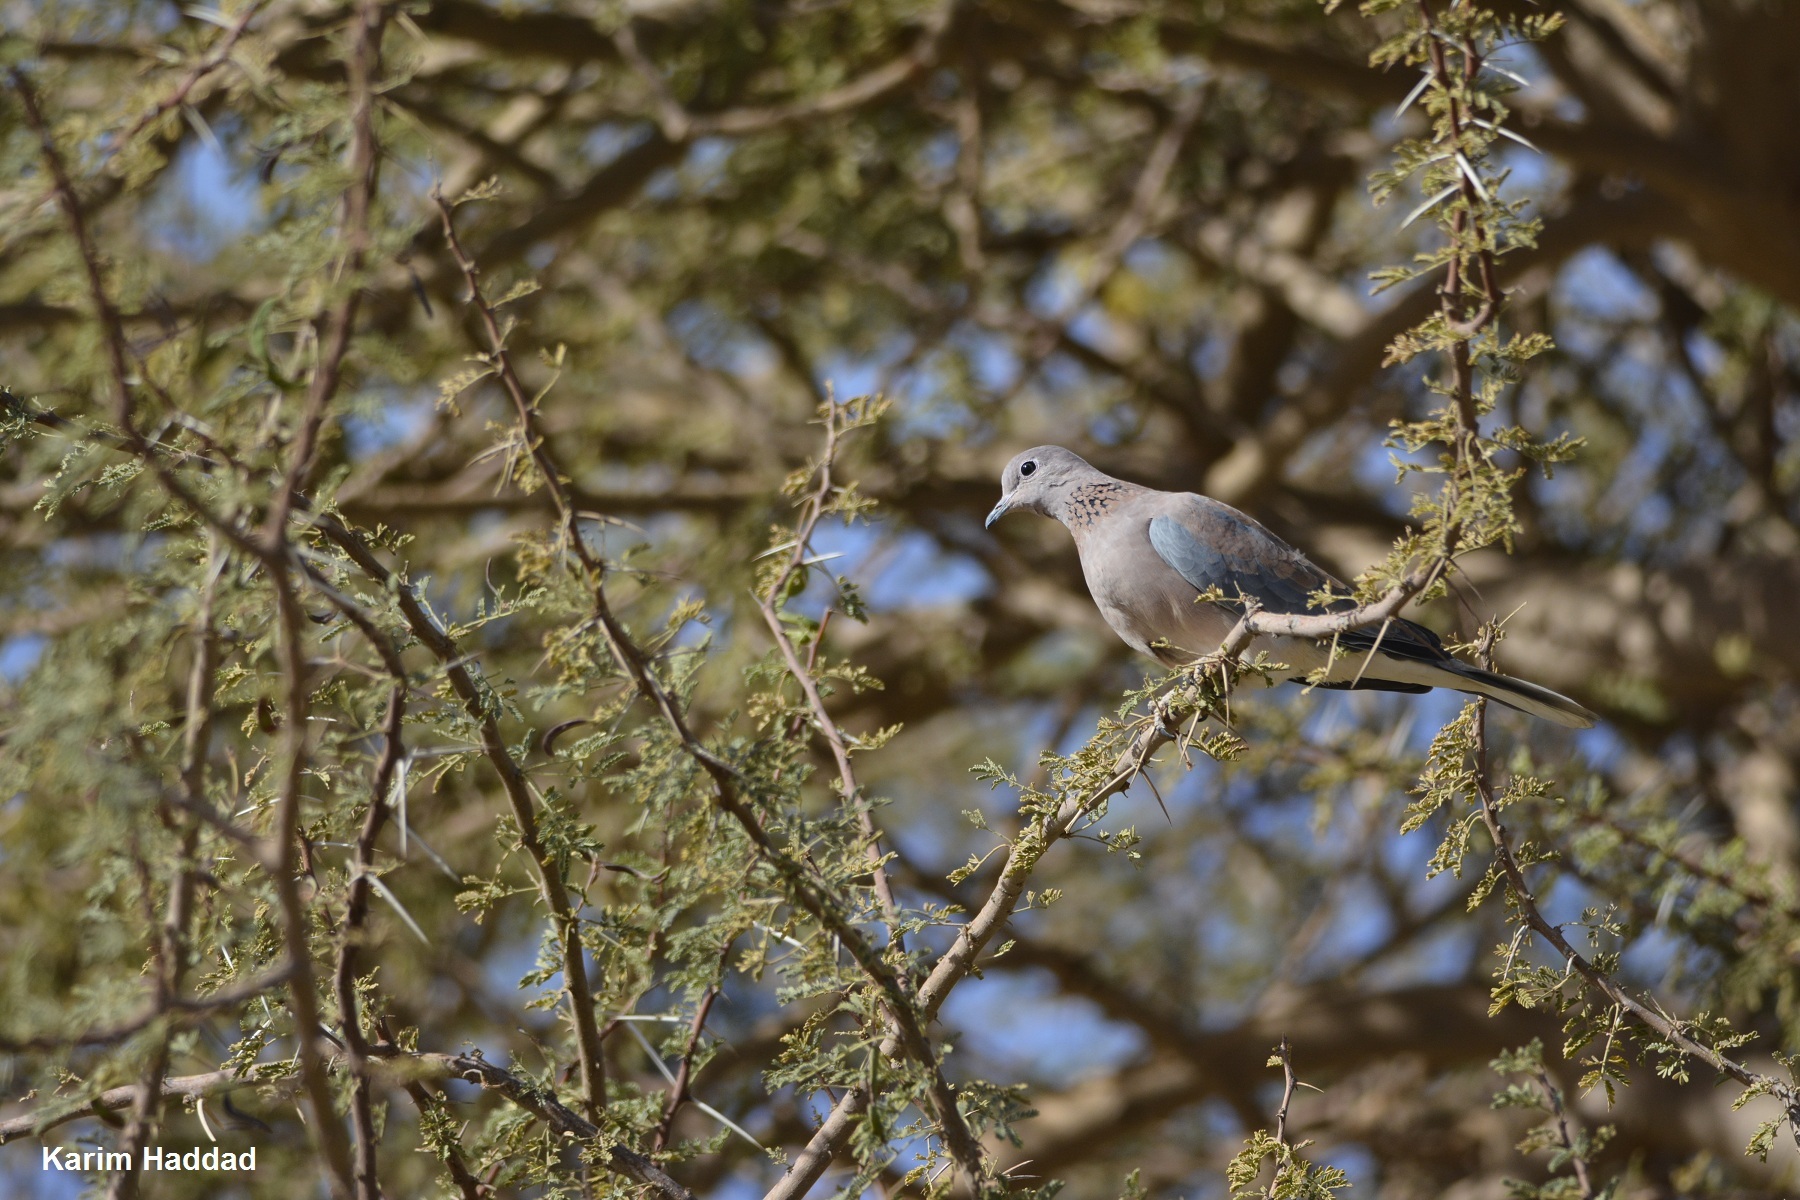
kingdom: Animalia
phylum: Chordata
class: Aves
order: Columbiformes
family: Columbidae
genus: Spilopelia
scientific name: Spilopelia senegalensis
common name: Laughing dove
